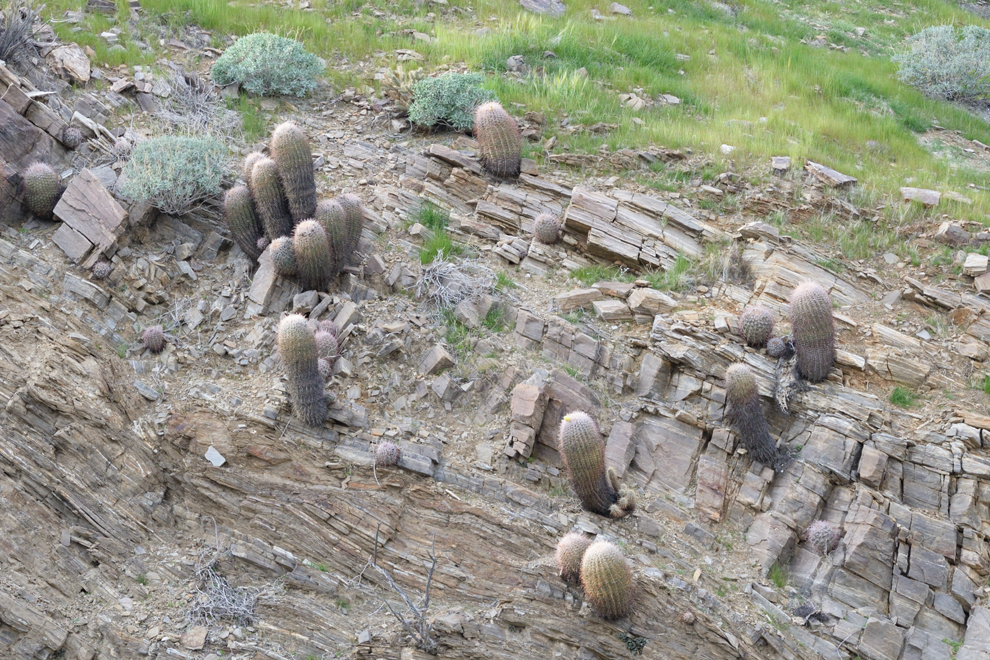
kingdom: Plantae
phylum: Tracheophyta
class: Magnoliopsida
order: Caryophyllales
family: Cactaceae
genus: Ferocactus
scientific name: Ferocactus cylindraceus
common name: California barrel cactus
